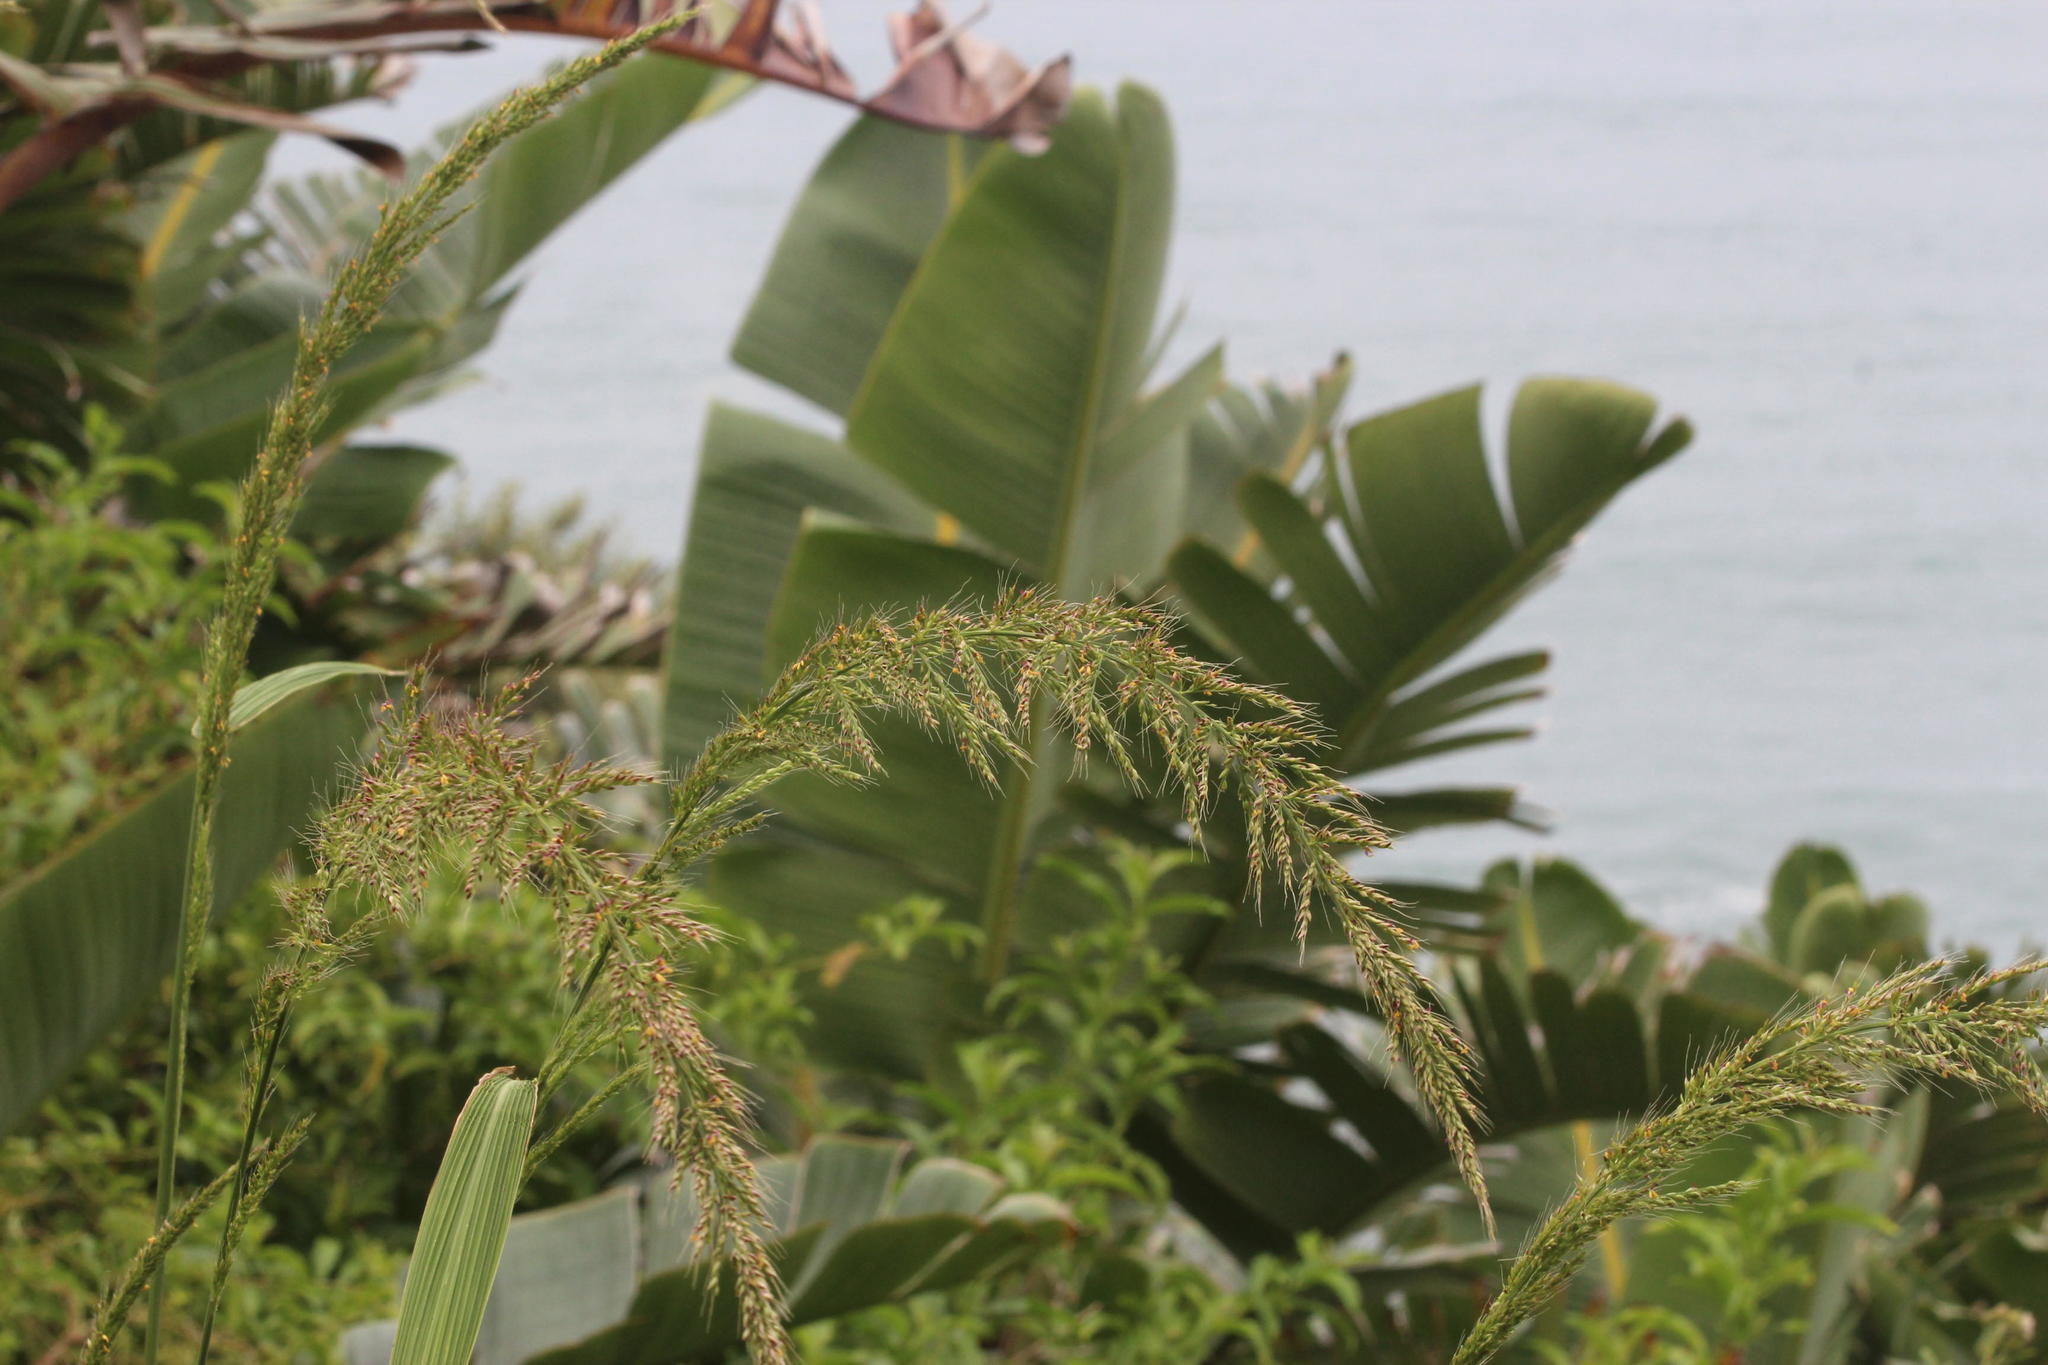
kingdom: Plantae
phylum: Tracheophyta
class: Liliopsida
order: Poales
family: Poaceae
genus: Setaria
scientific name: Setaria megaphylla
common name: Bigleaf bristlegrass
